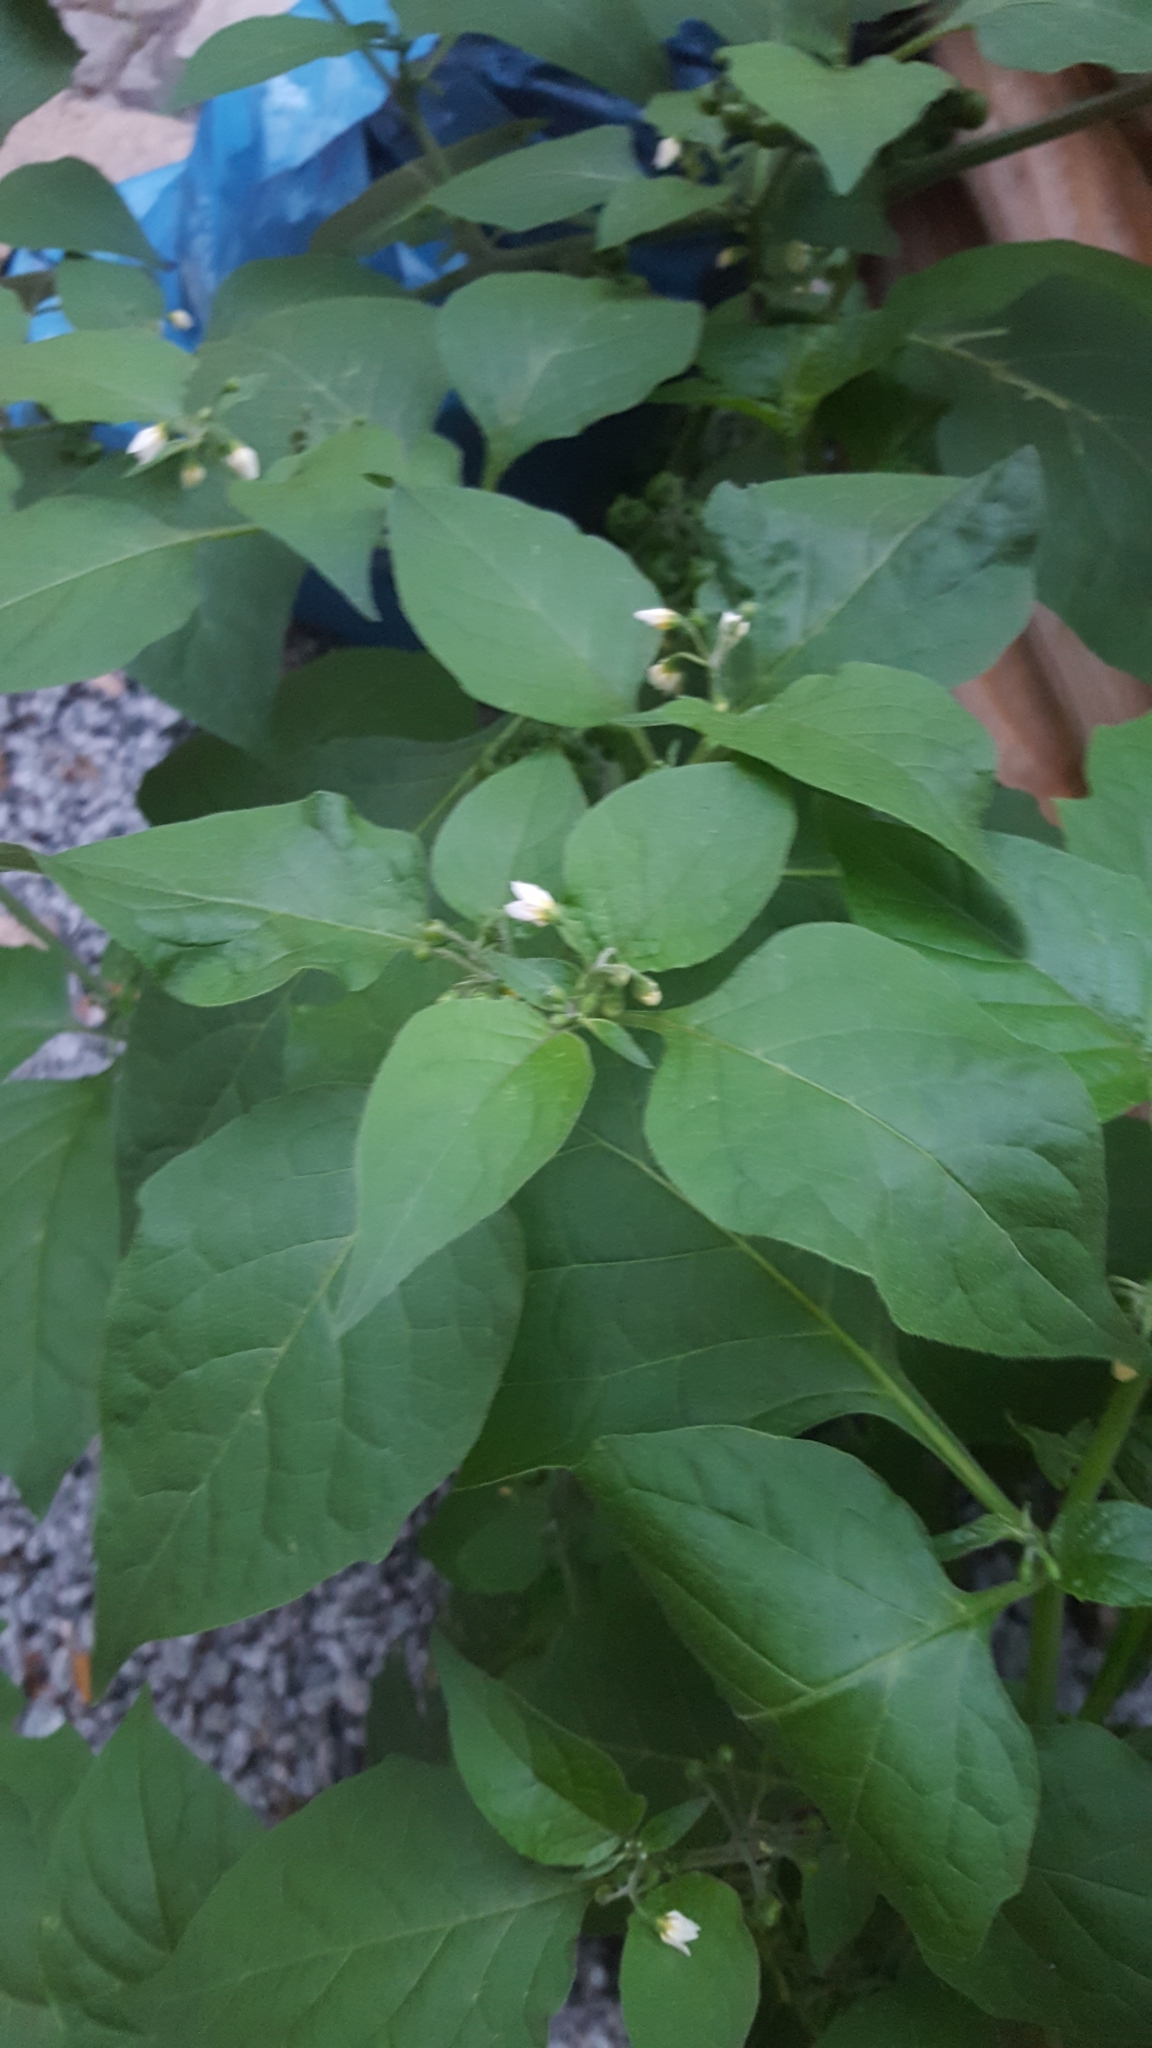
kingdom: Plantae
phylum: Tracheophyta
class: Magnoliopsida
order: Solanales
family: Solanaceae
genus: Solanum
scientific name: Solanum nigrum
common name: Black nightshade
